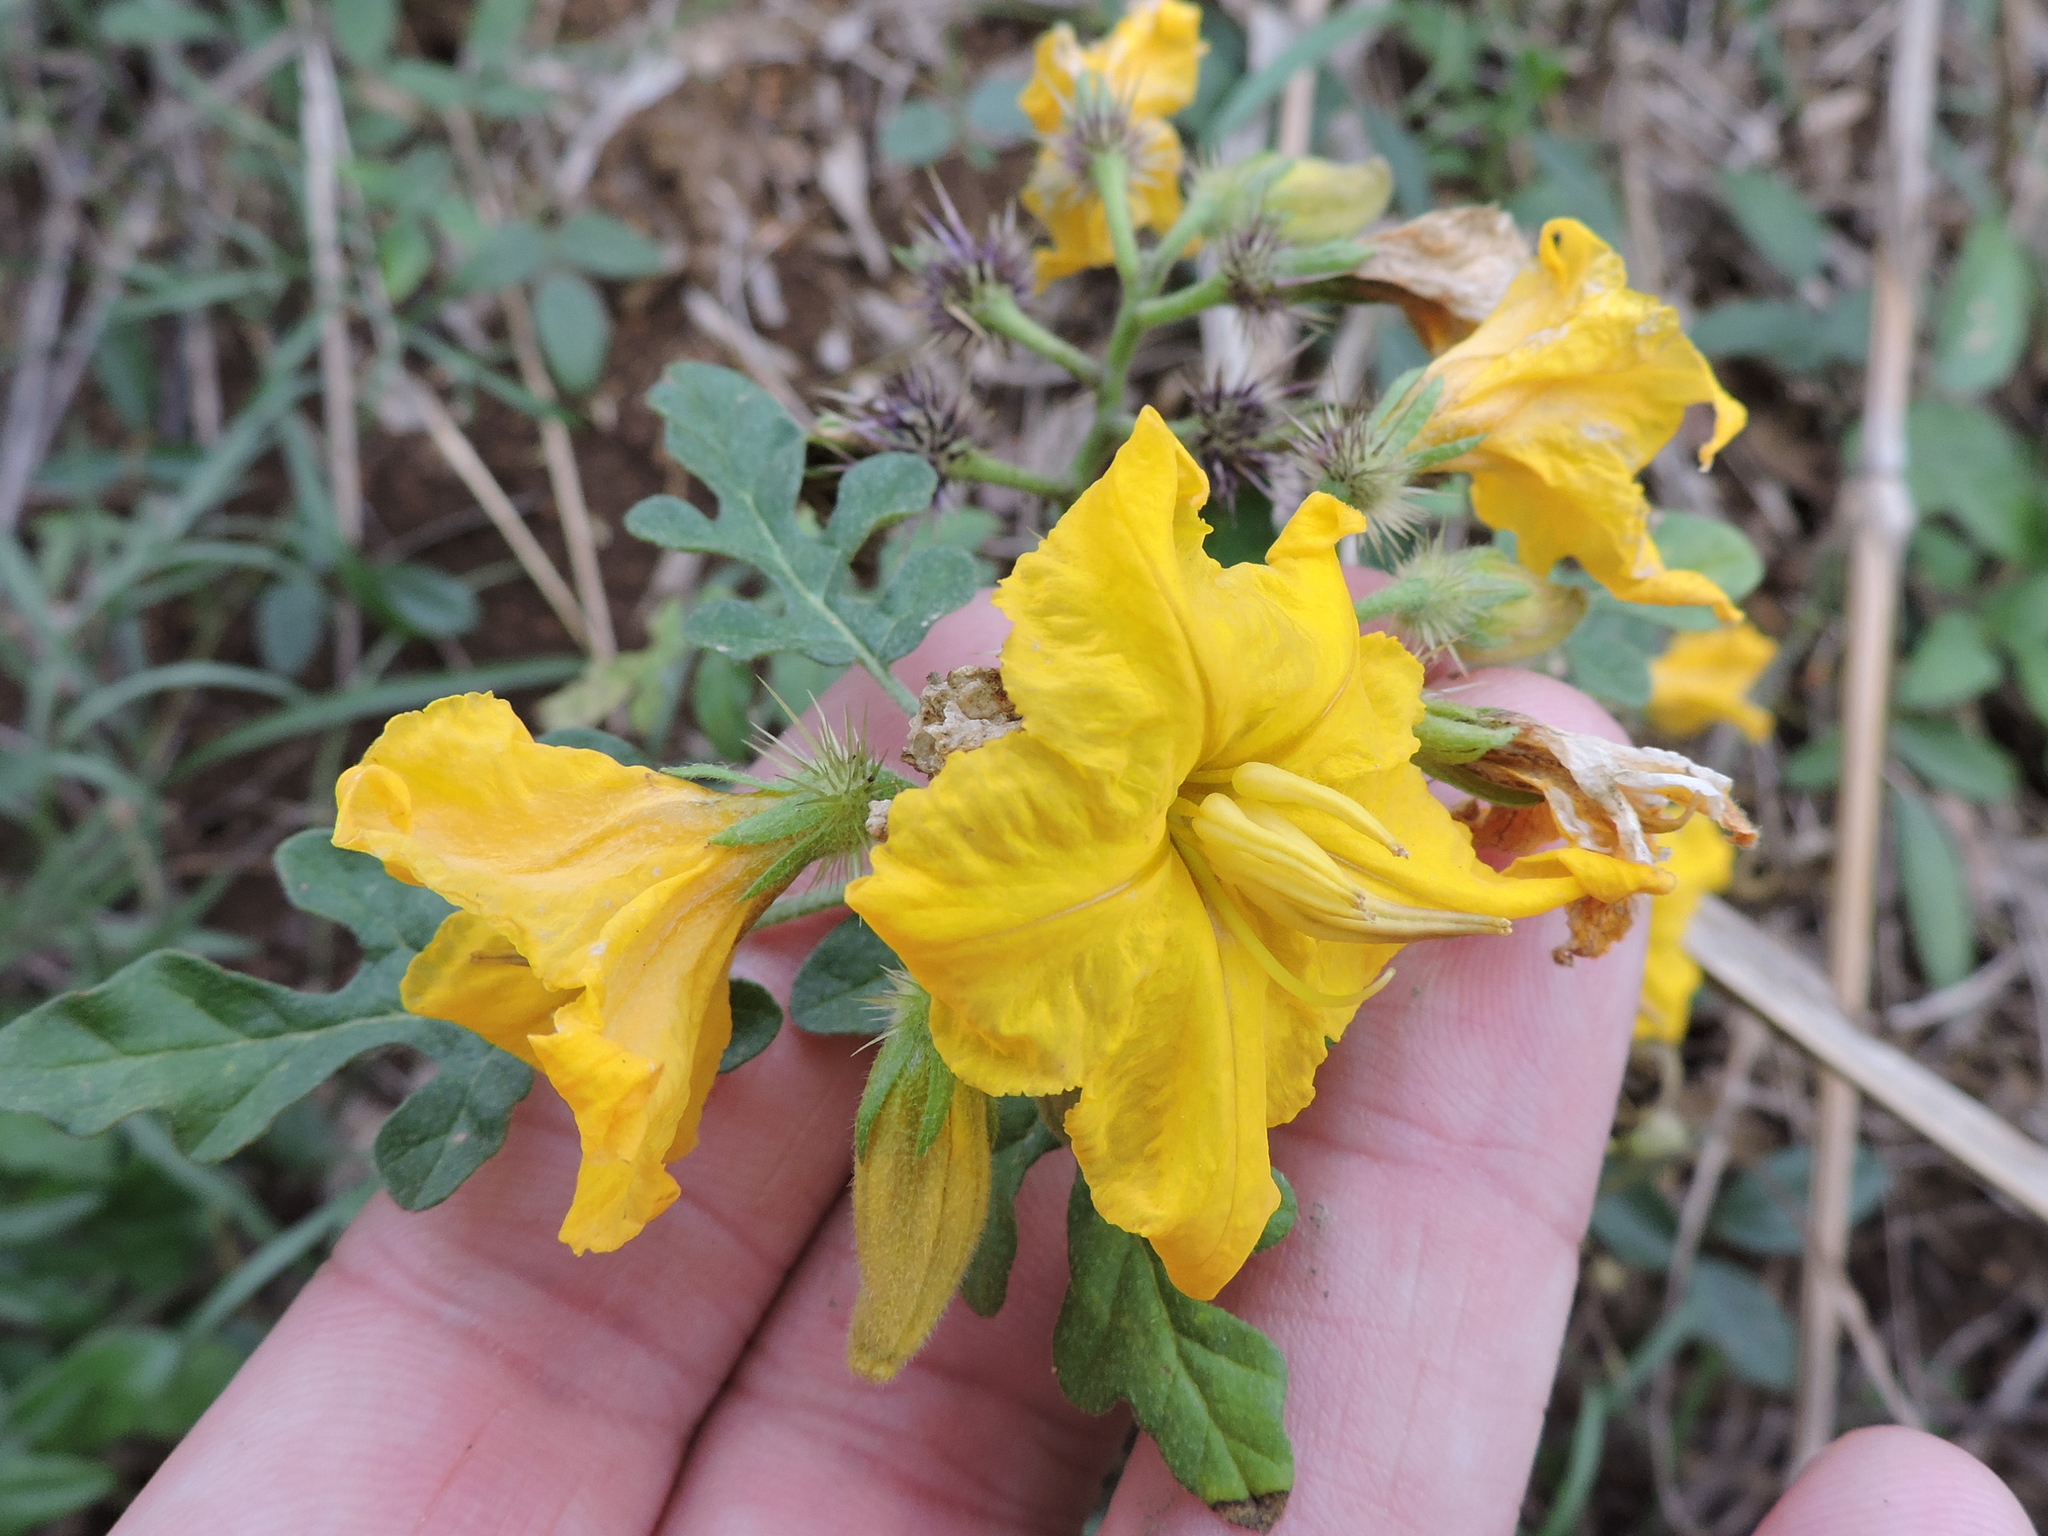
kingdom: Plantae
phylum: Tracheophyta
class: Magnoliopsida
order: Solanales
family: Solanaceae
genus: Solanum
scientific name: Solanum angustifolium
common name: Buffalobur nightshade
